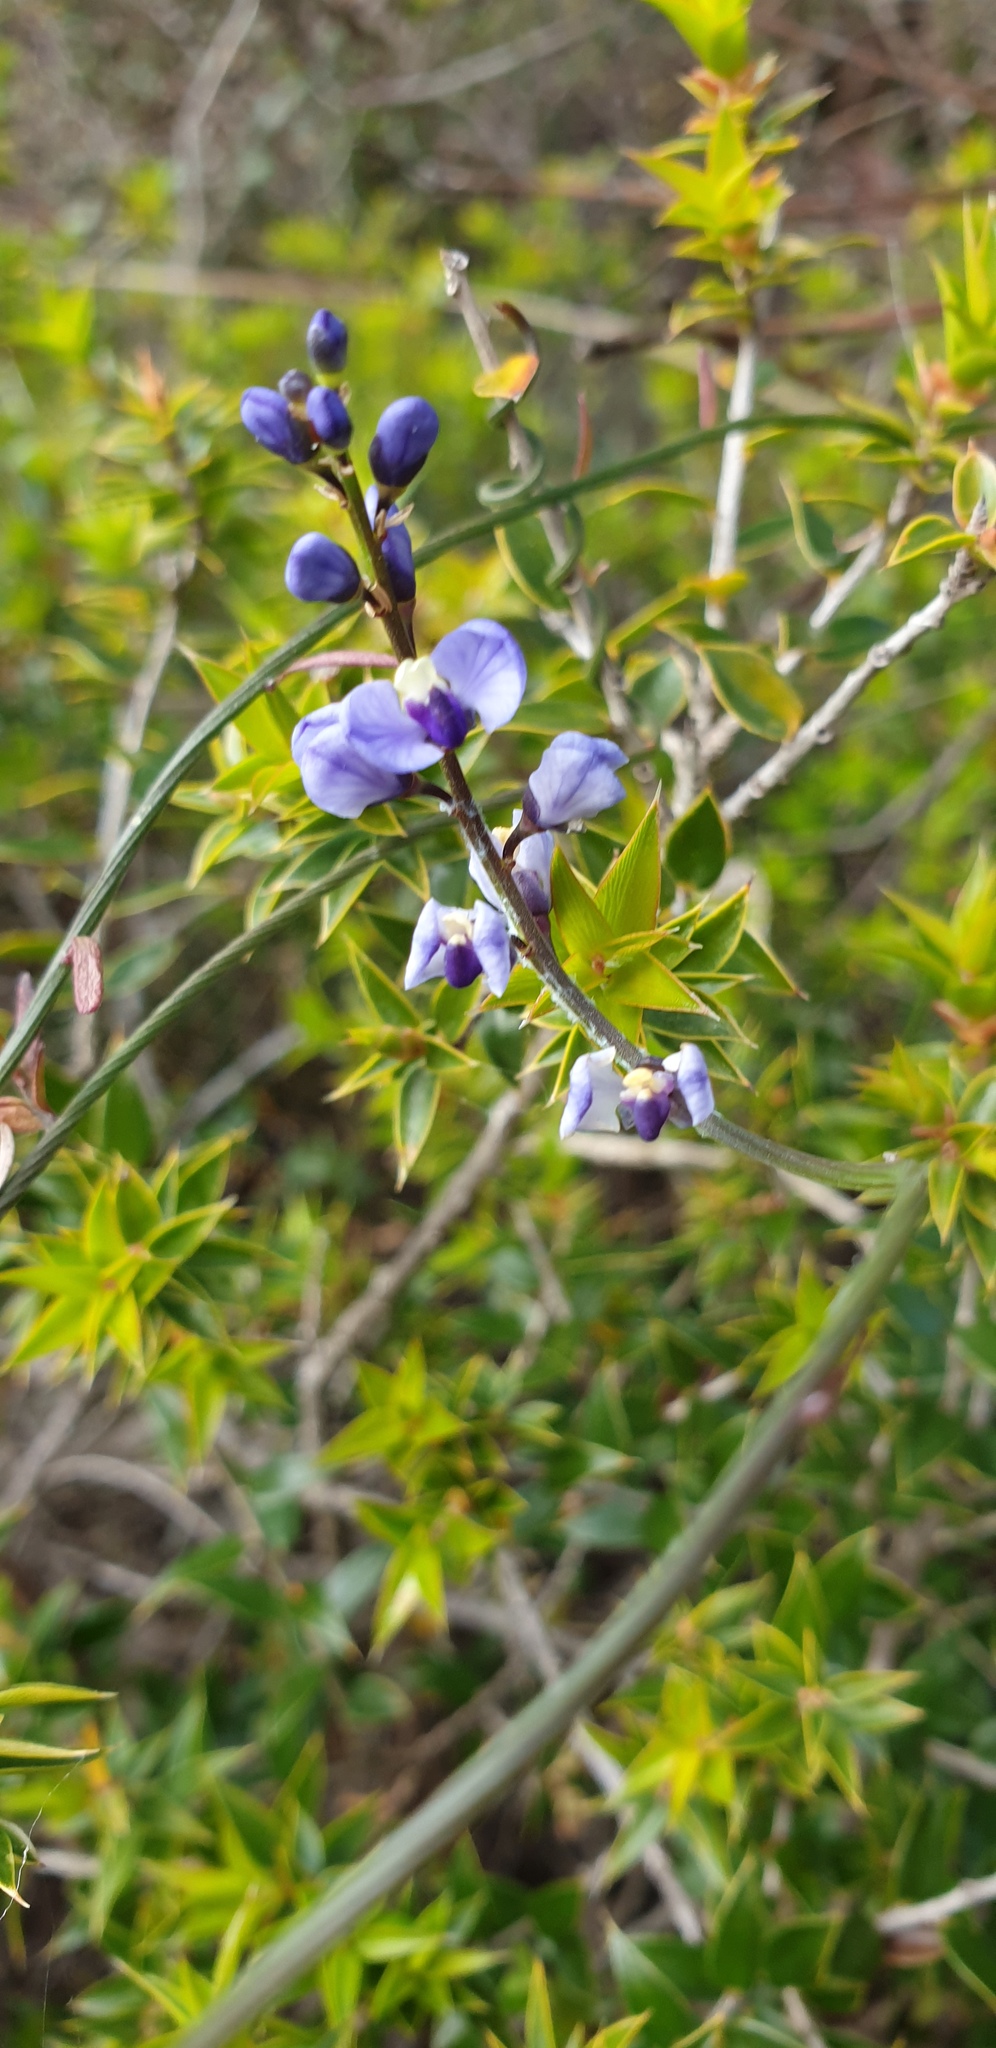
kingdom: Plantae
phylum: Tracheophyta
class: Magnoliopsida
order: Fabales
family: Polygalaceae
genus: Comesperma
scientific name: Comesperma volubile
